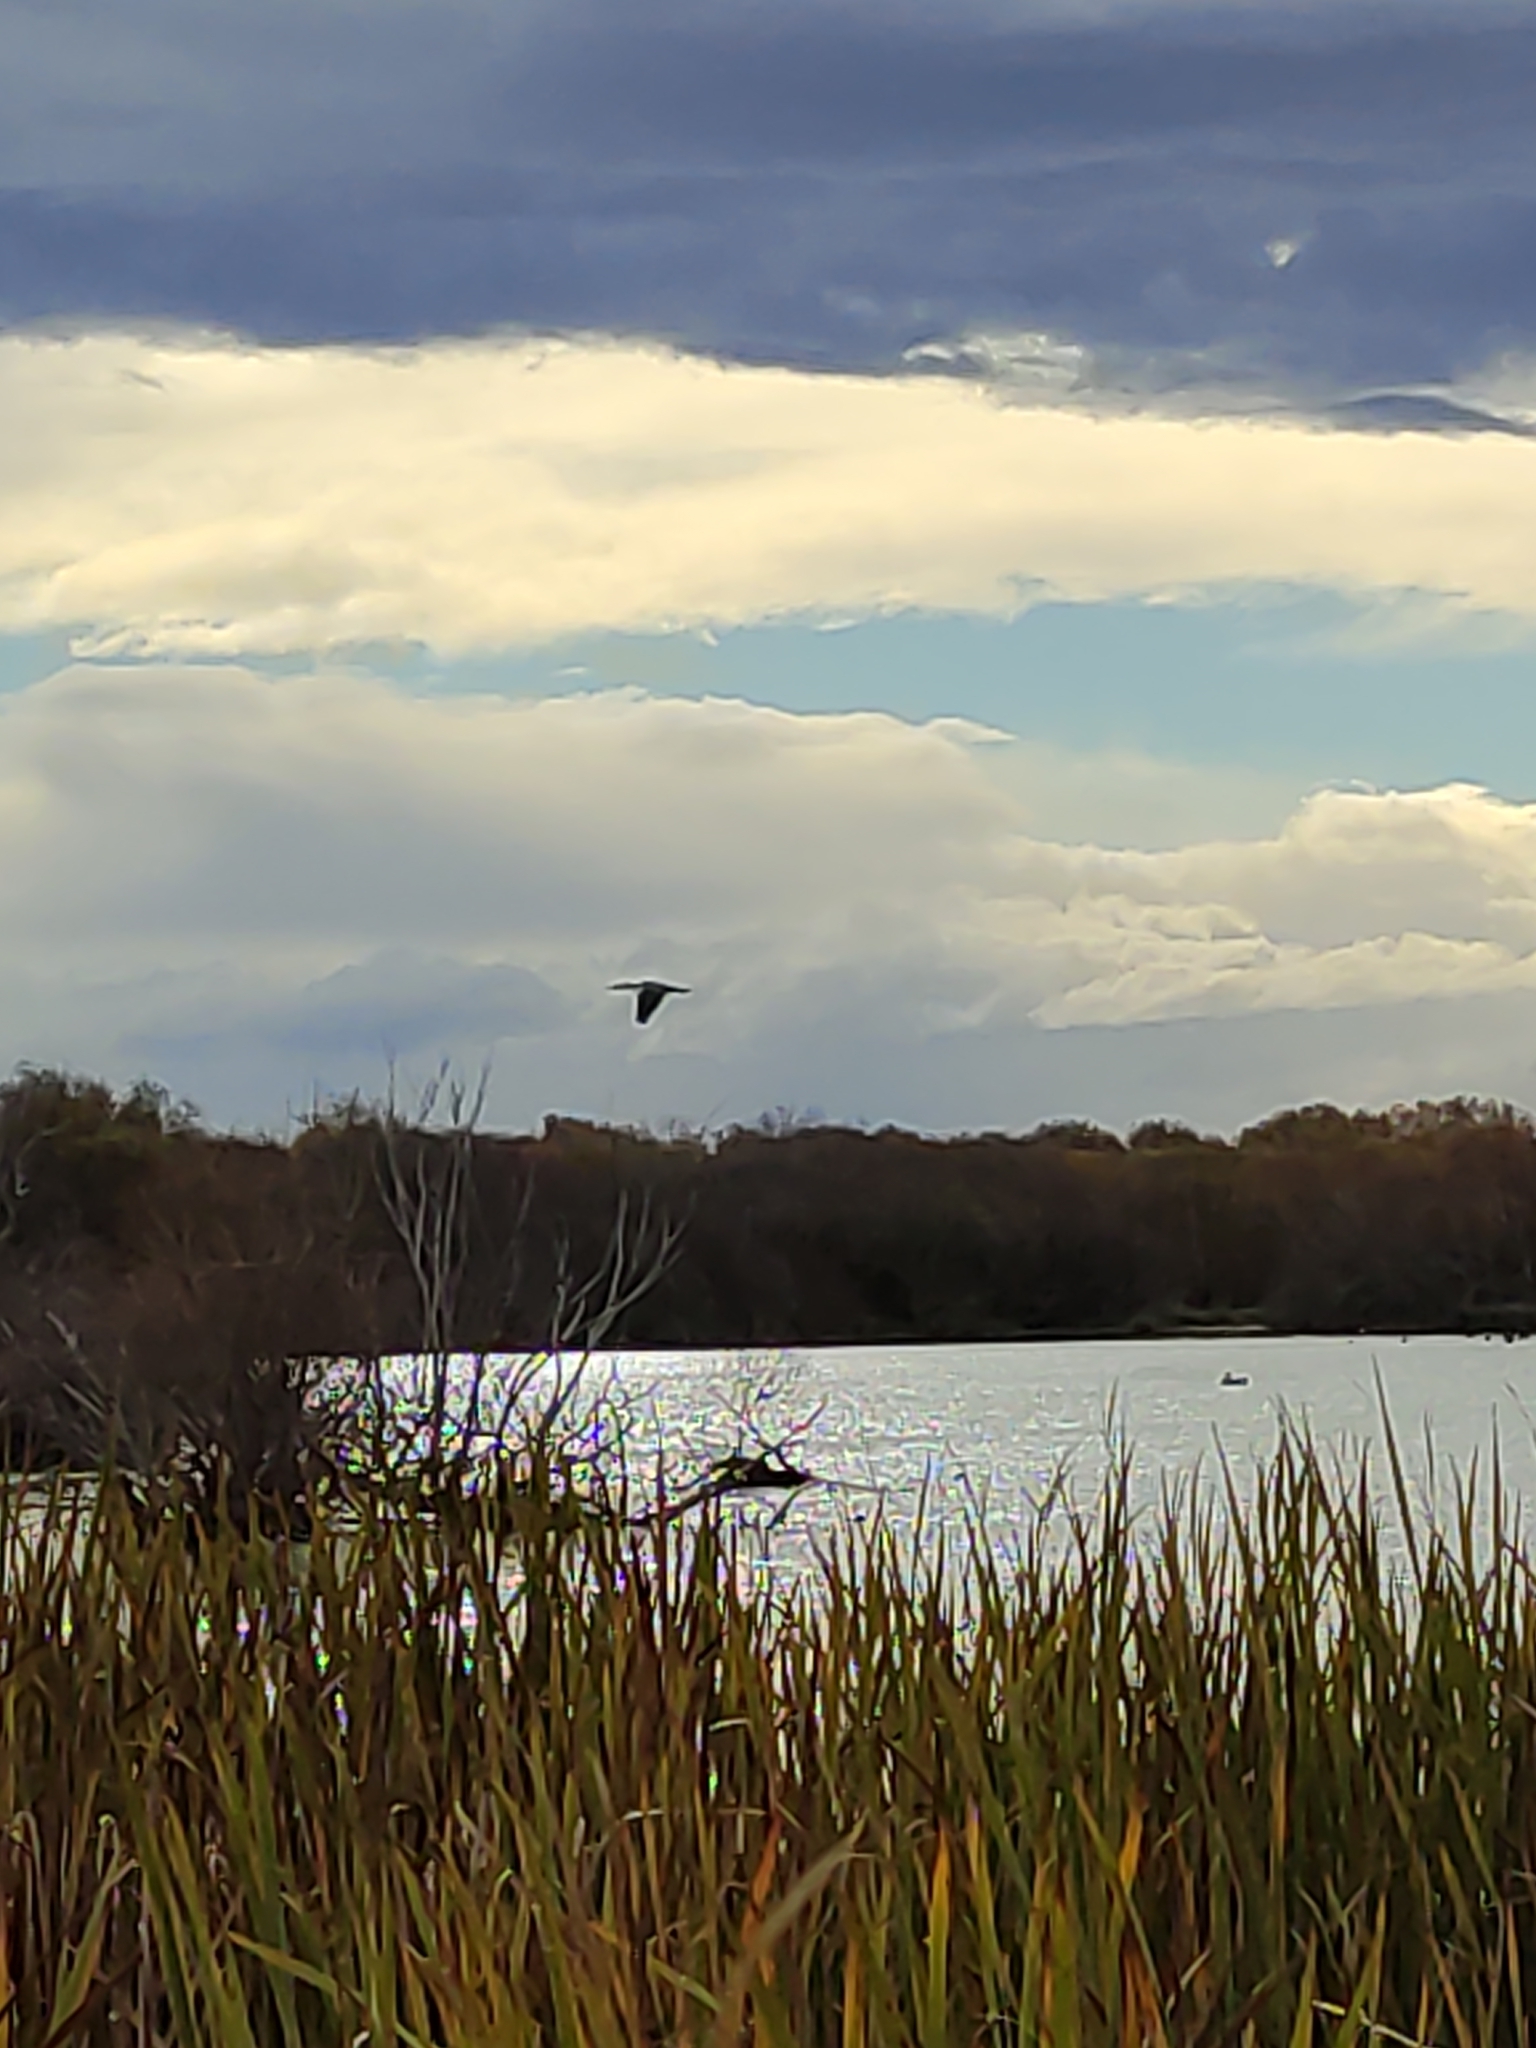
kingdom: Animalia
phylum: Chordata
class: Aves
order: Suliformes
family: Phalacrocoracidae
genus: Phalacrocorax
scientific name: Phalacrocorax varius
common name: Pied cormorant
